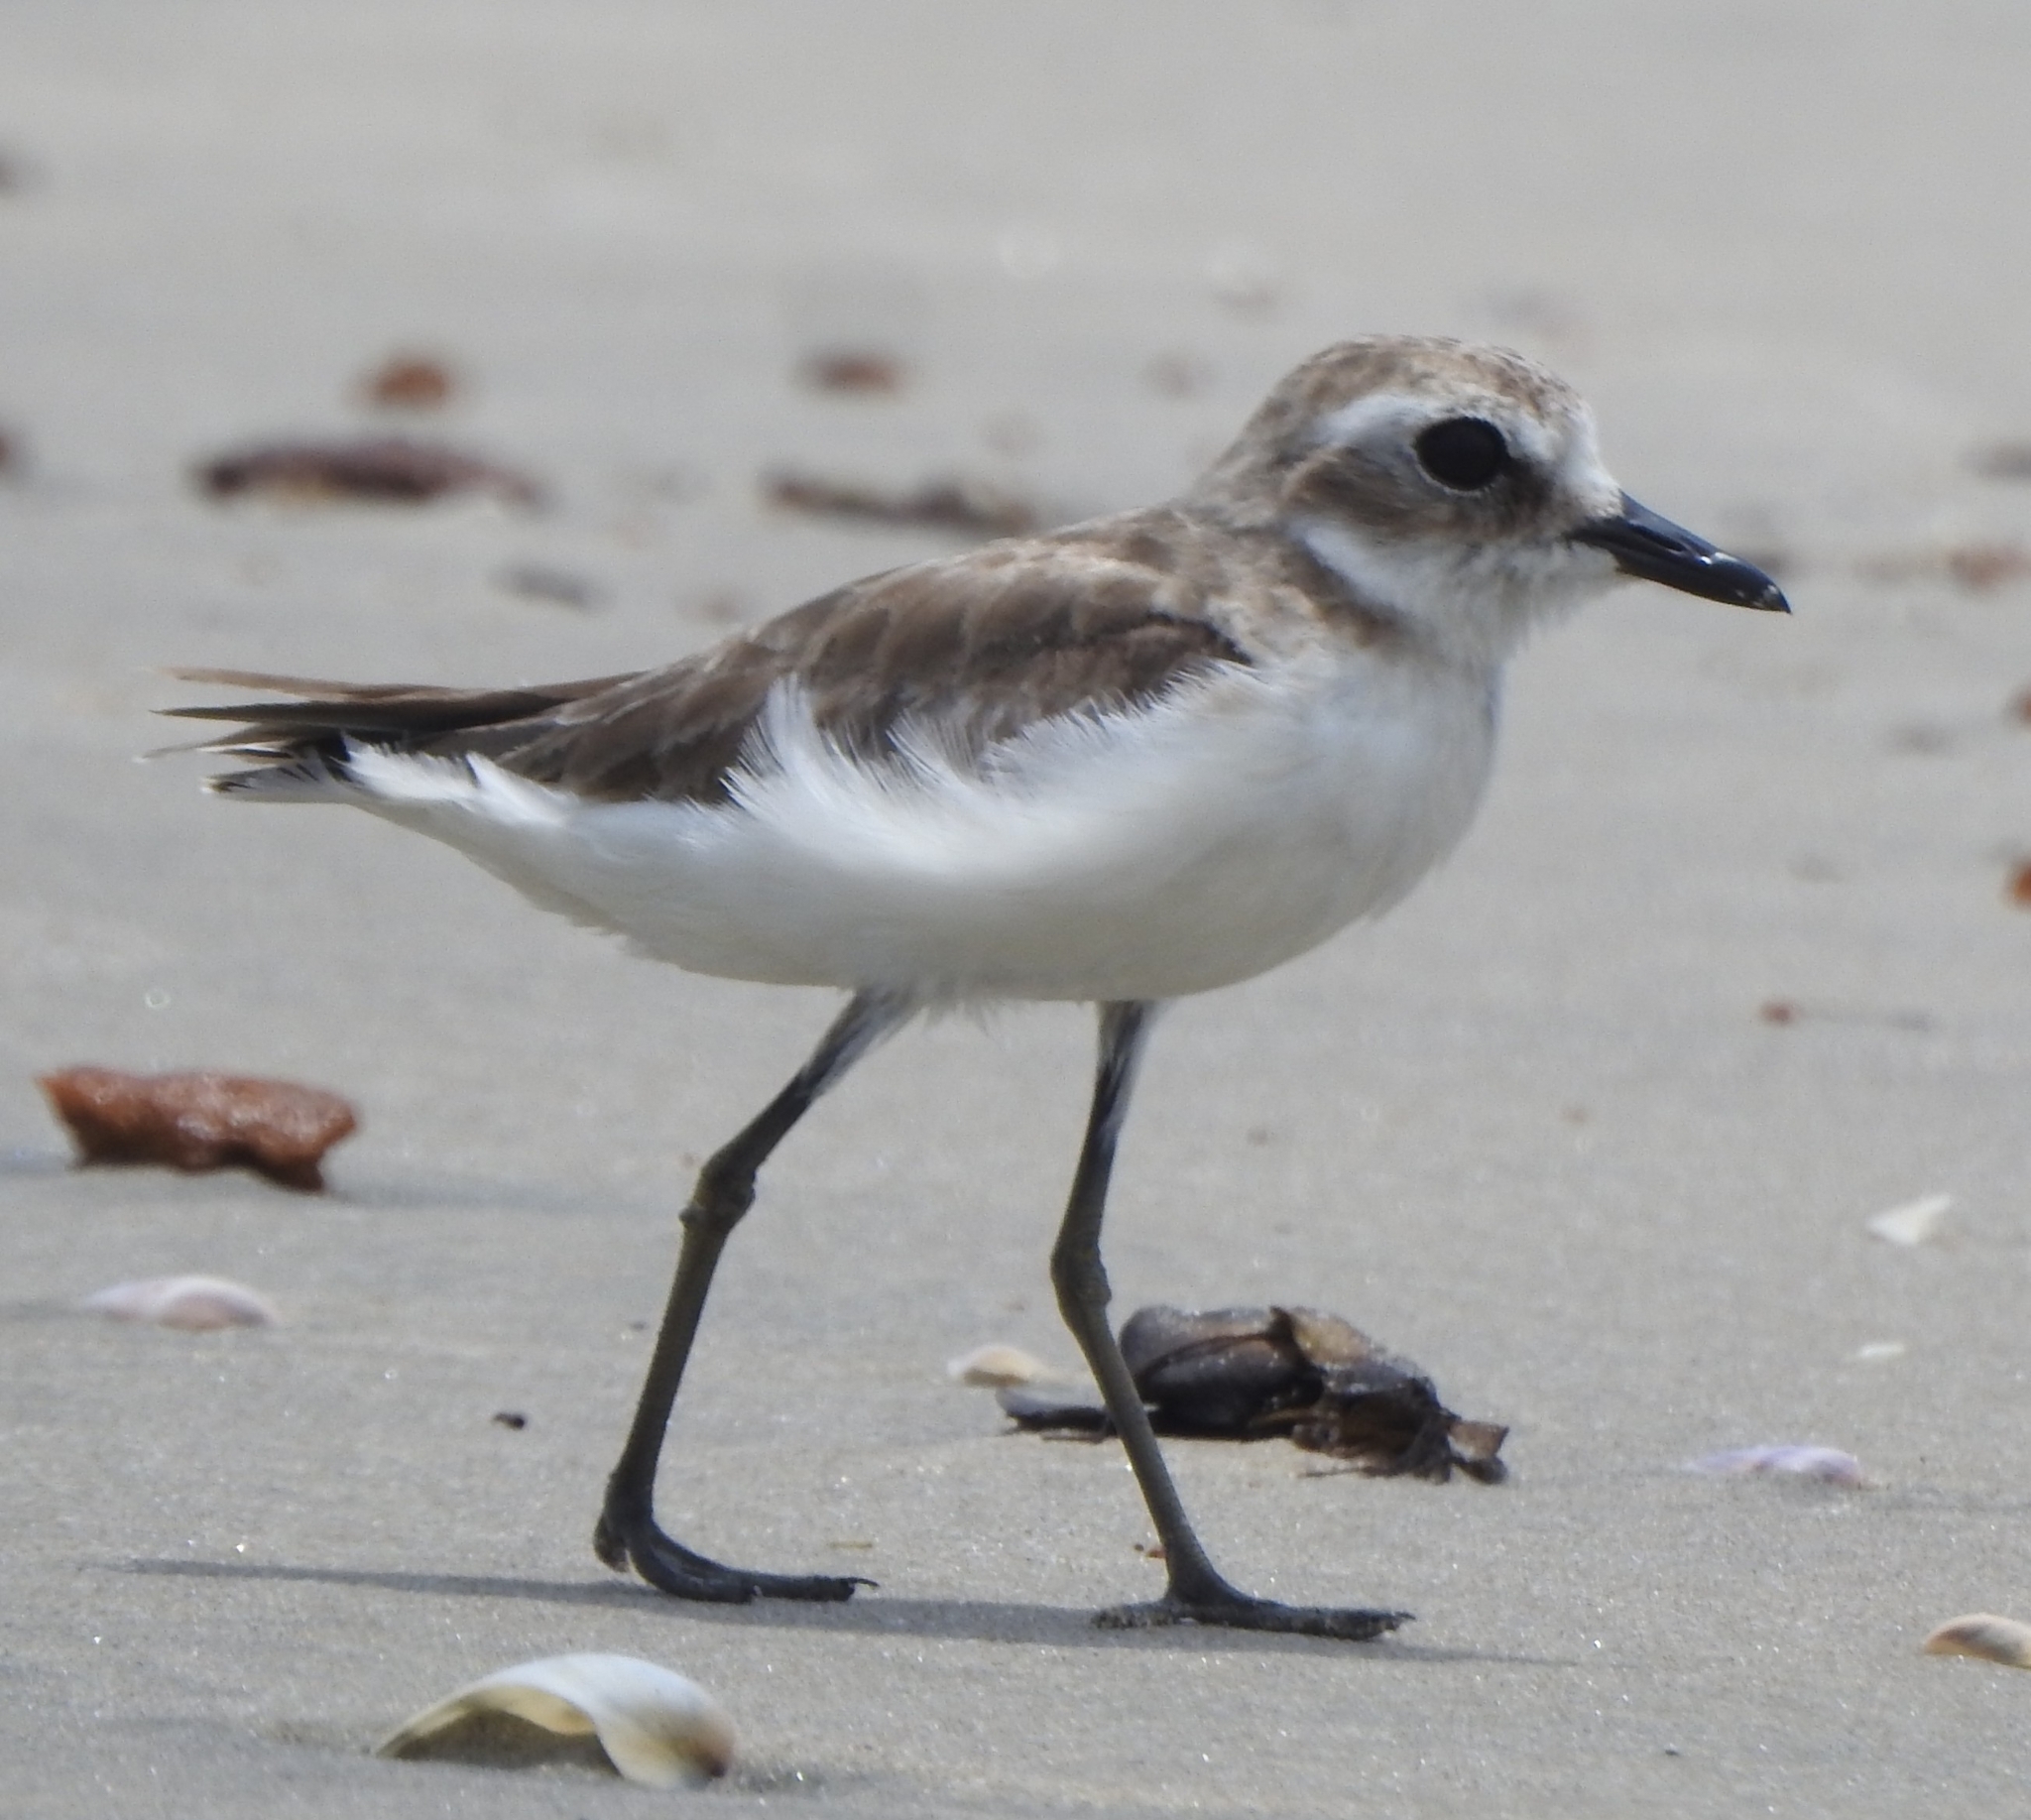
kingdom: Animalia
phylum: Chordata
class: Aves
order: Charadriiformes
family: Charadriidae
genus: Anarhynchus
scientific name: Anarhynchus
